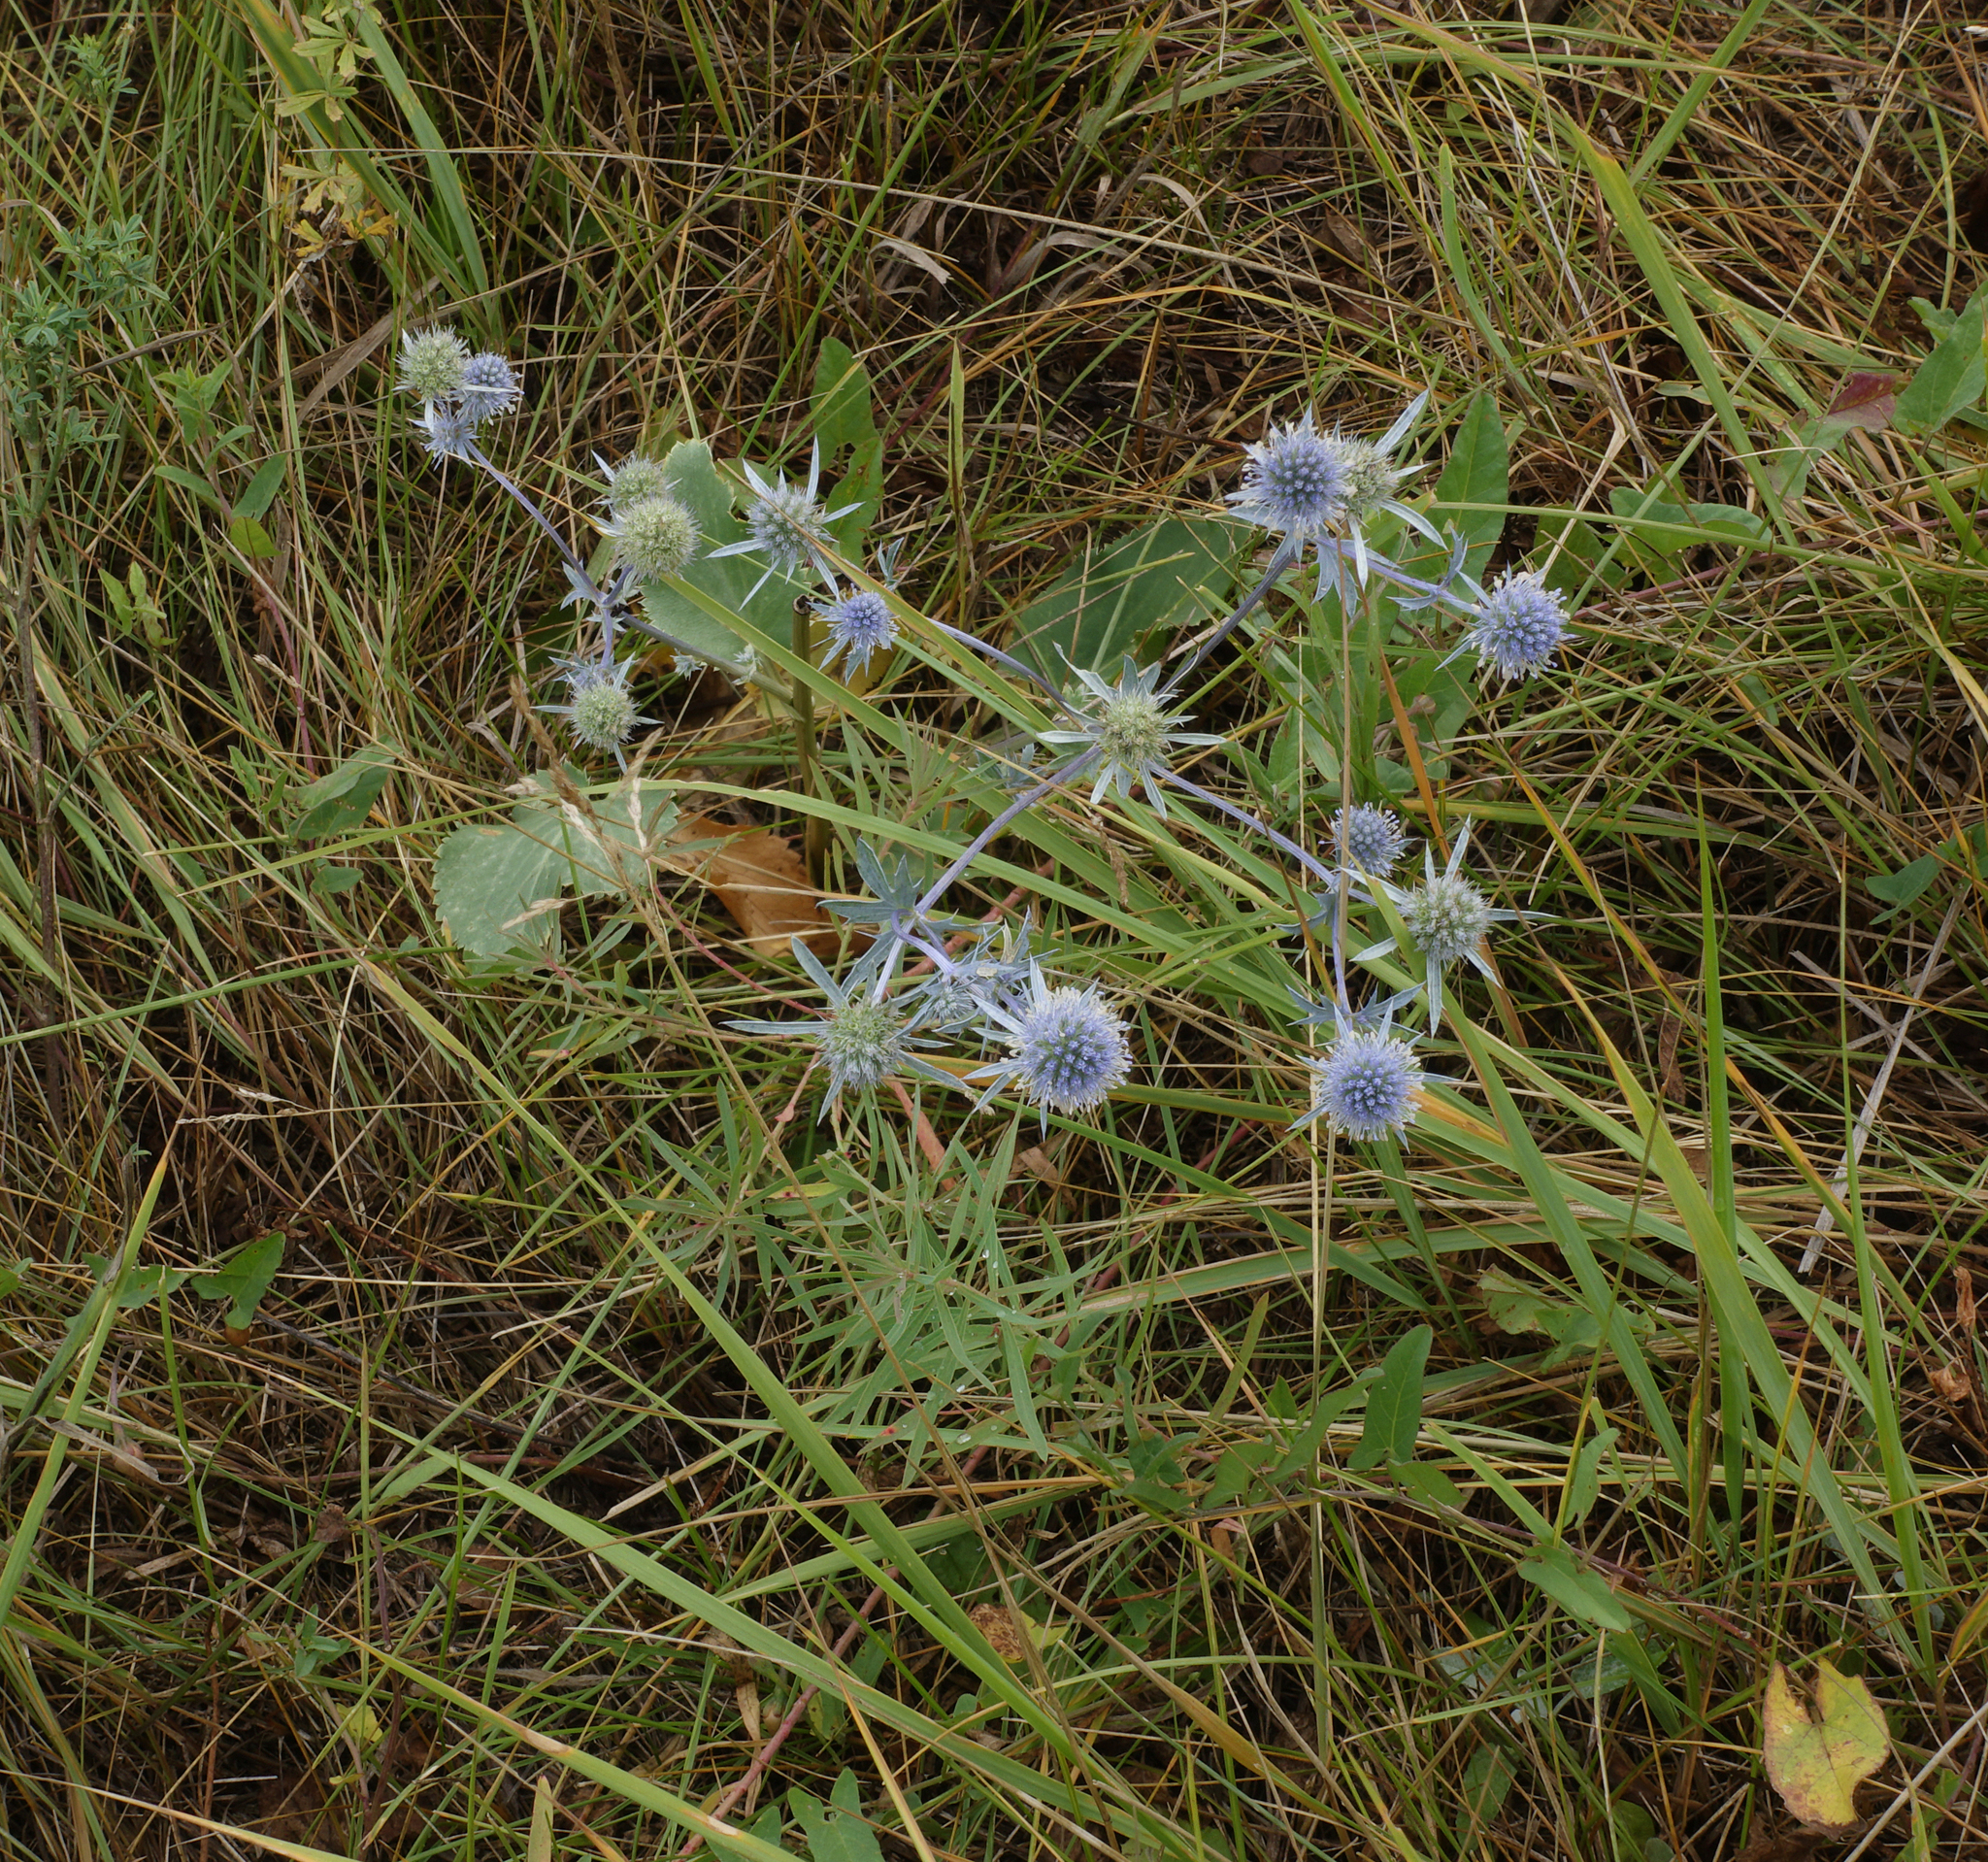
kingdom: Plantae
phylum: Tracheophyta
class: Magnoliopsida
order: Apiales
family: Apiaceae
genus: Eryngium
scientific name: Eryngium planum
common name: Blue eryngo
